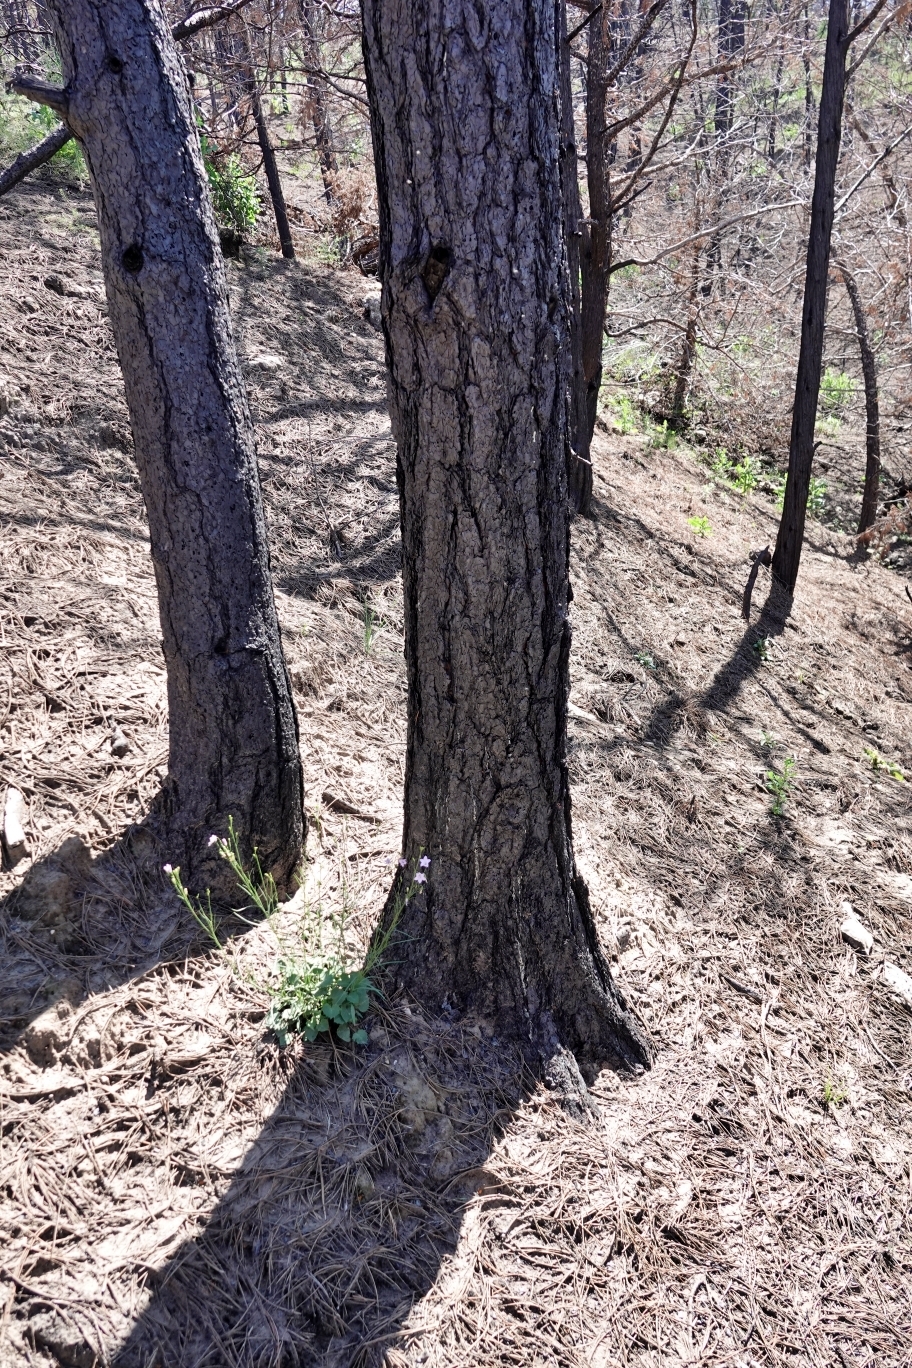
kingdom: Plantae
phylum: Tracheophyta
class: Magnoliopsida
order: Asterales
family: Campanulaceae
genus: Campanula
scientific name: Campanula petiolata
